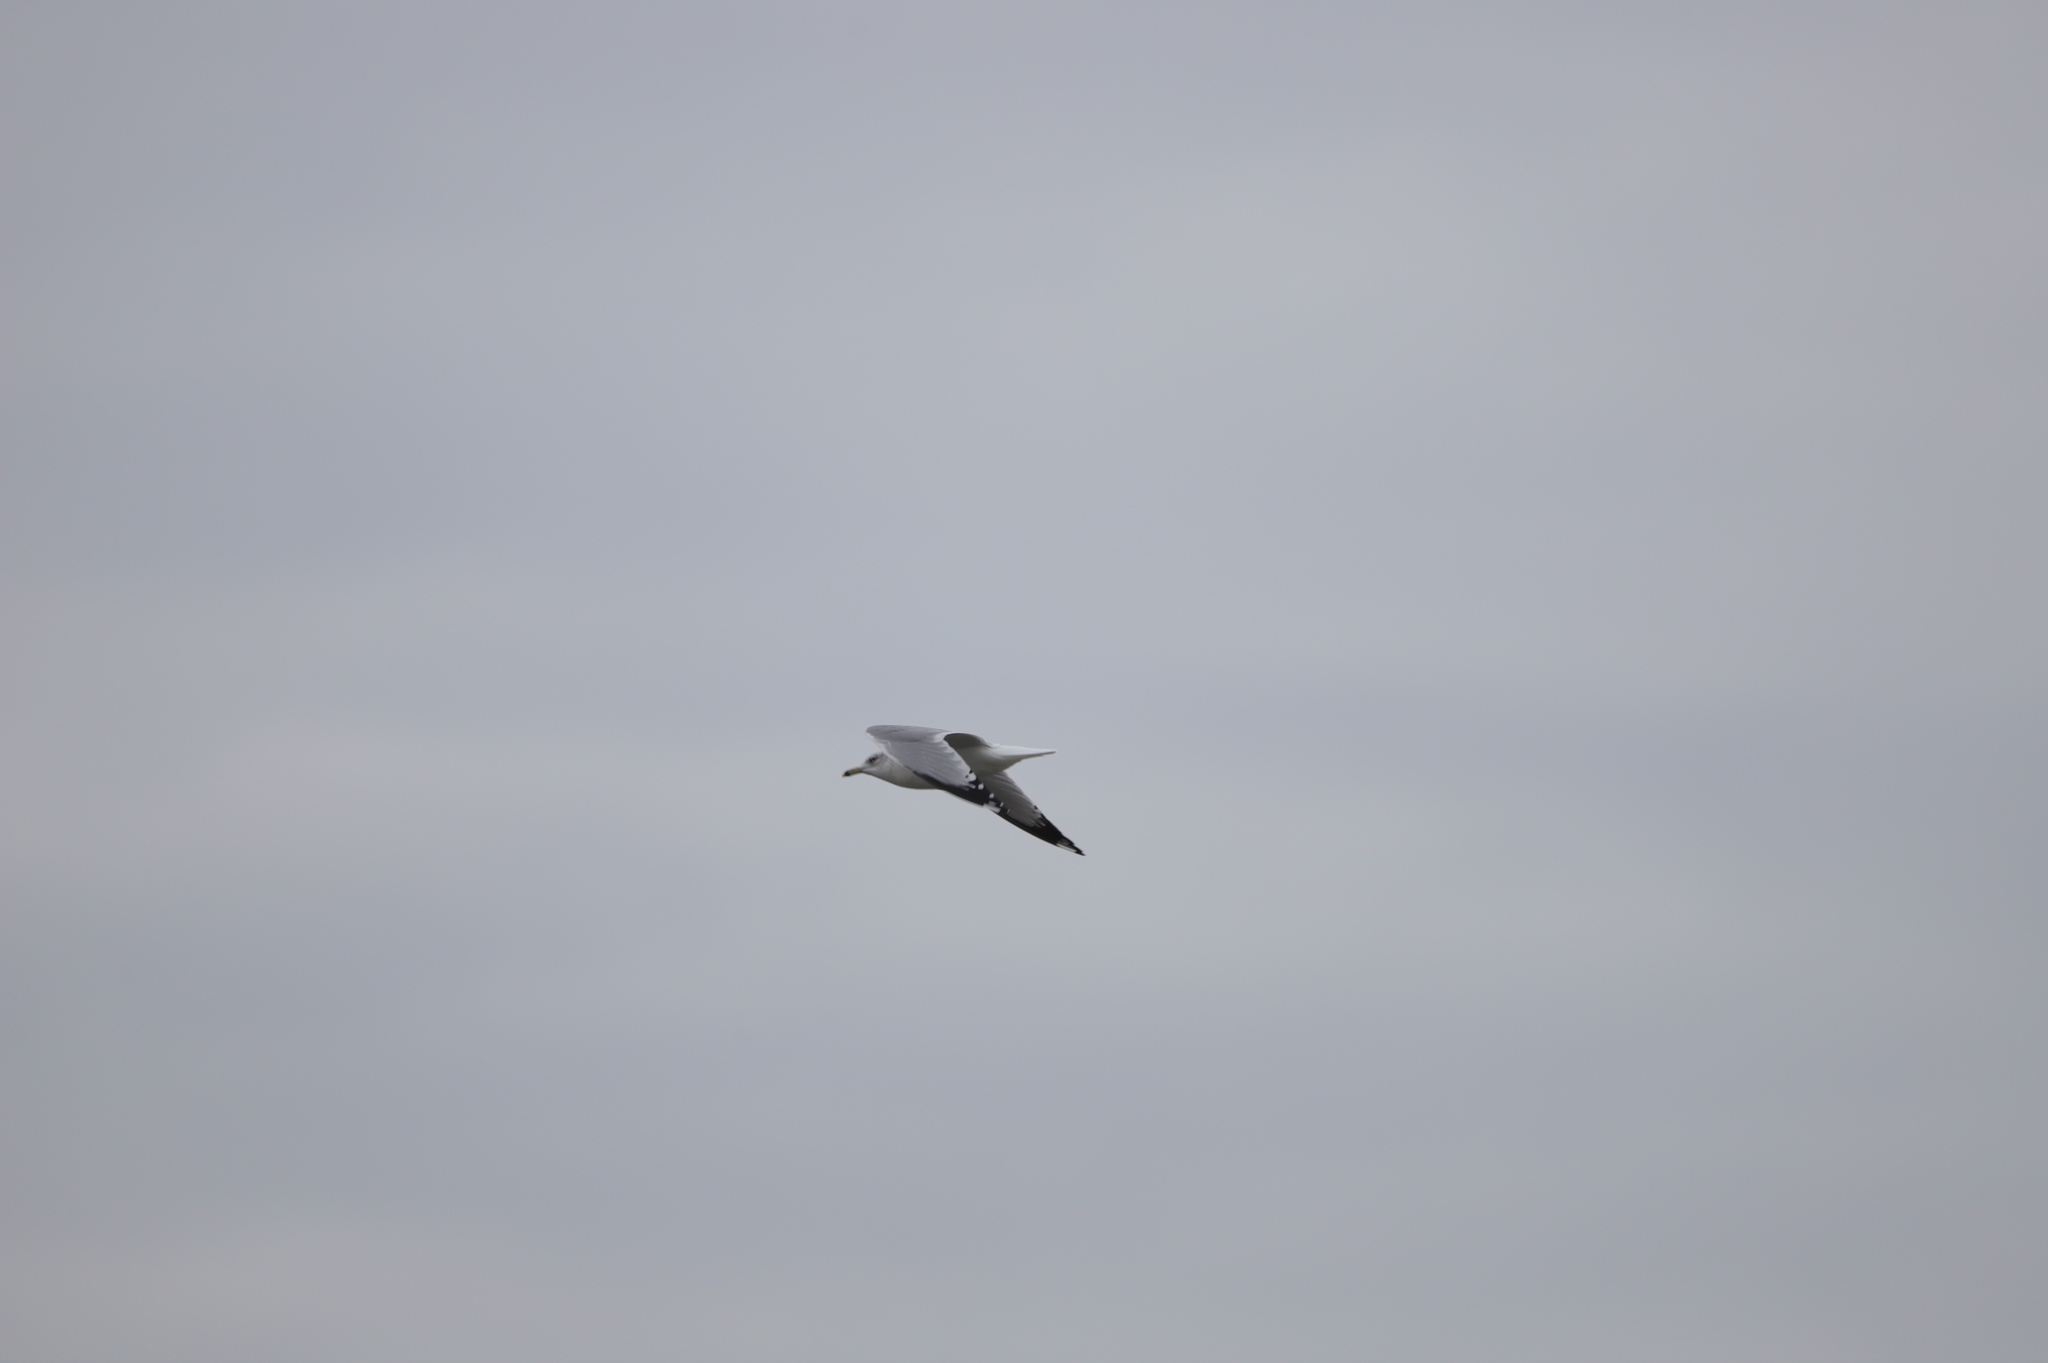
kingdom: Animalia
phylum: Chordata
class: Aves
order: Charadriiformes
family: Laridae
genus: Larus
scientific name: Larus delawarensis
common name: Ring-billed gull
